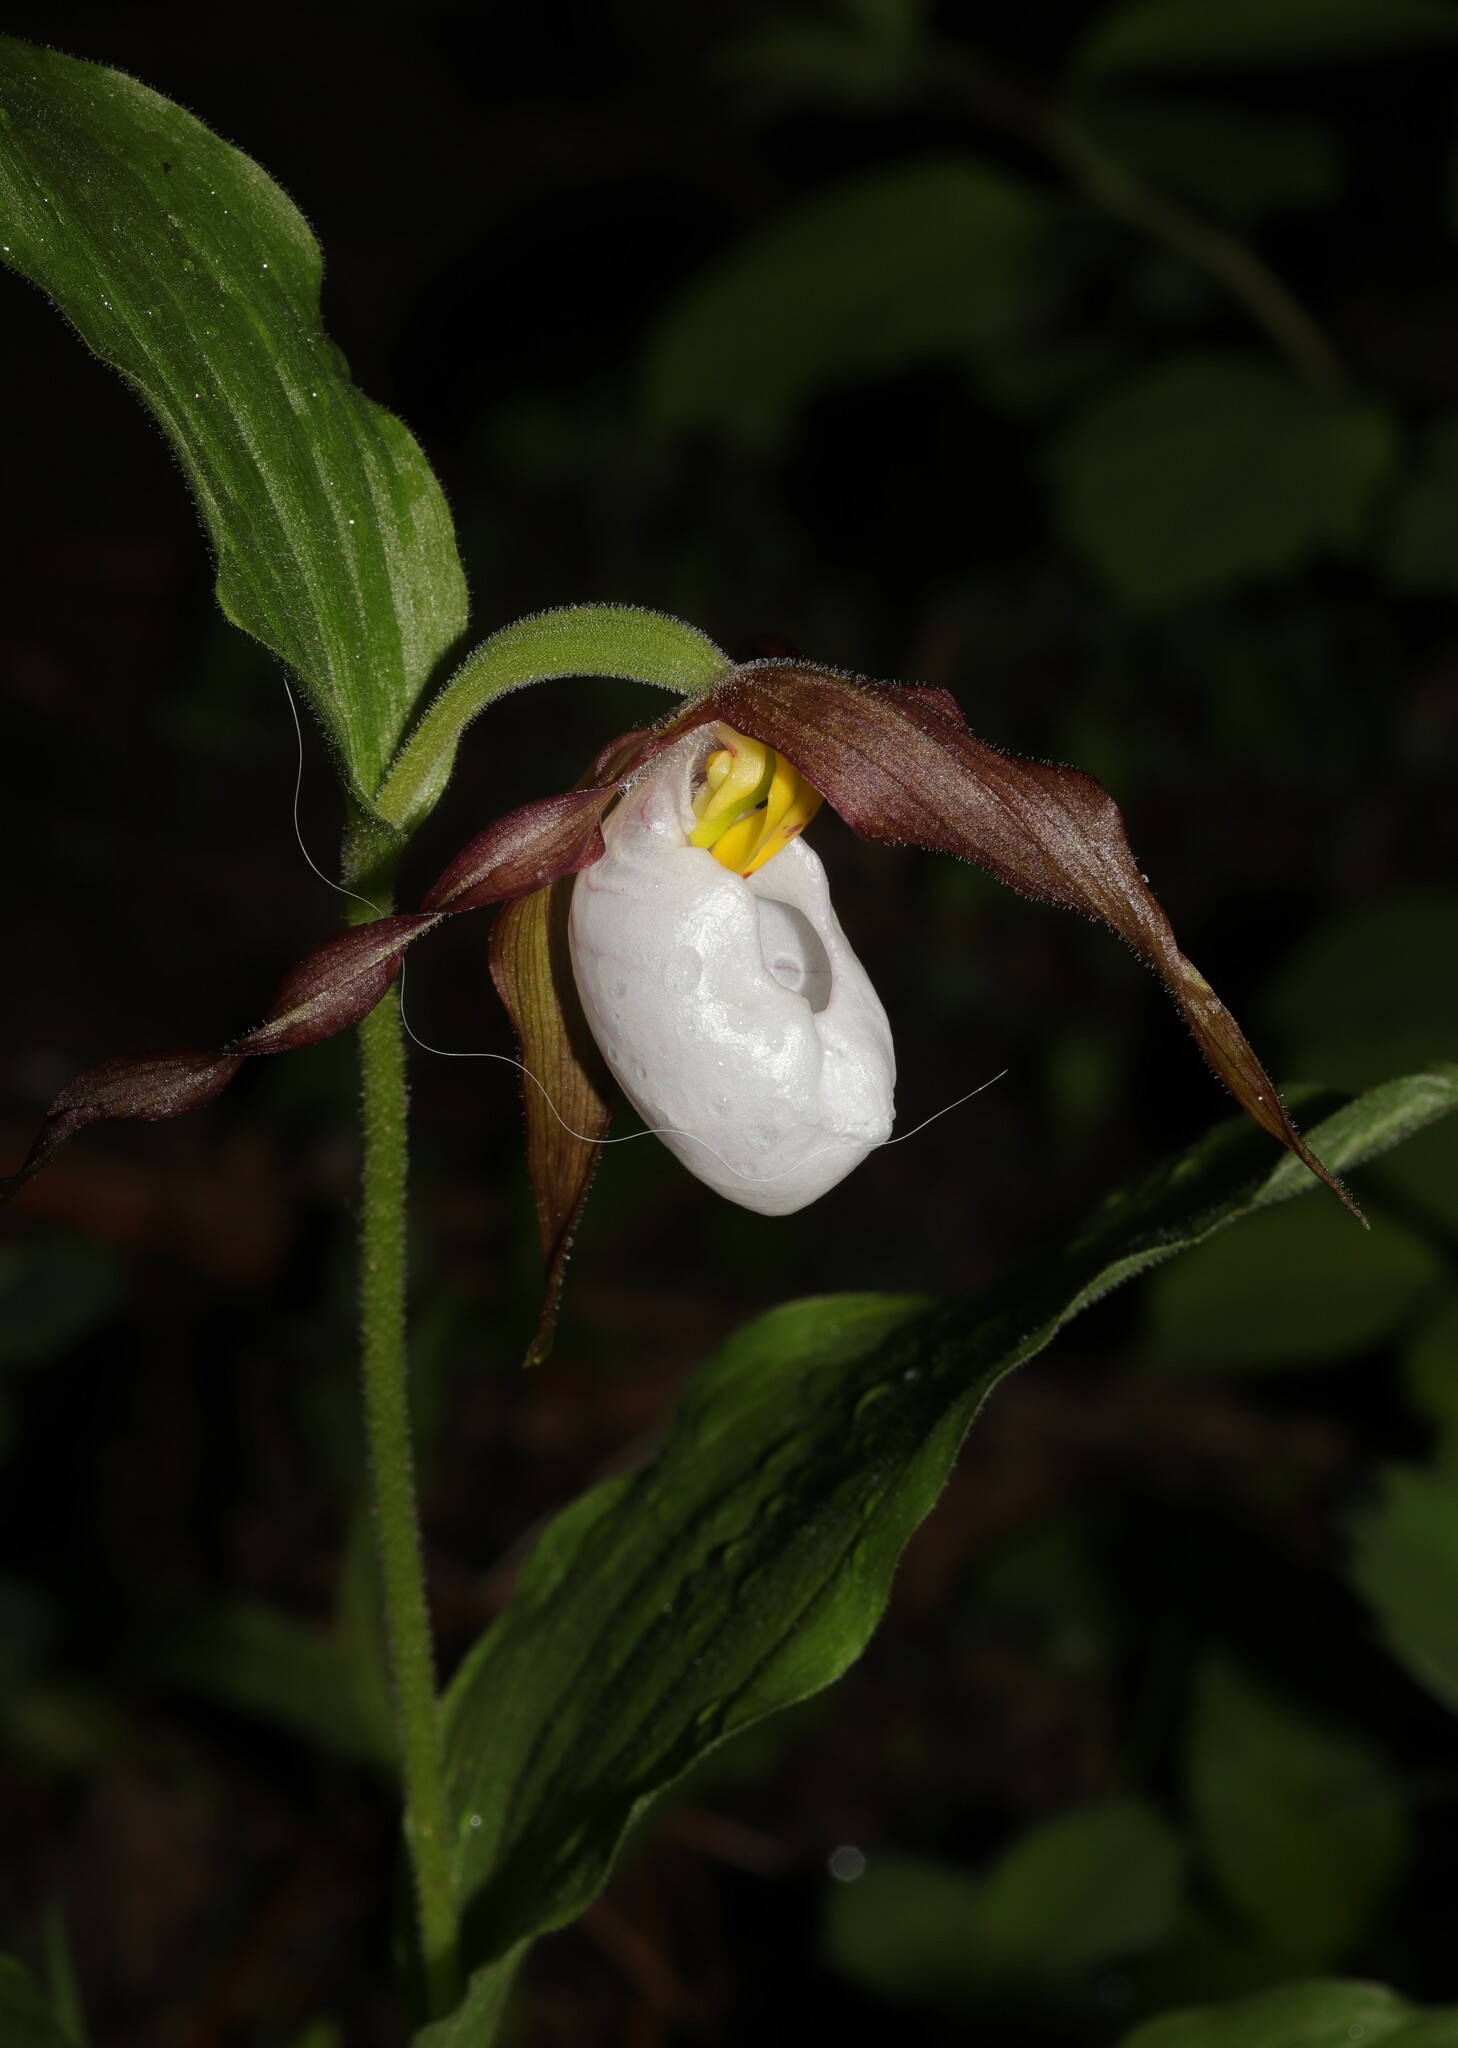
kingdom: Plantae
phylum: Tracheophyta
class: Liliopsida
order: Asparagales
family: Orchidaceae
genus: Cypripedium
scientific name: Cypripedium montanum
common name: Mountain lady's-slipper
